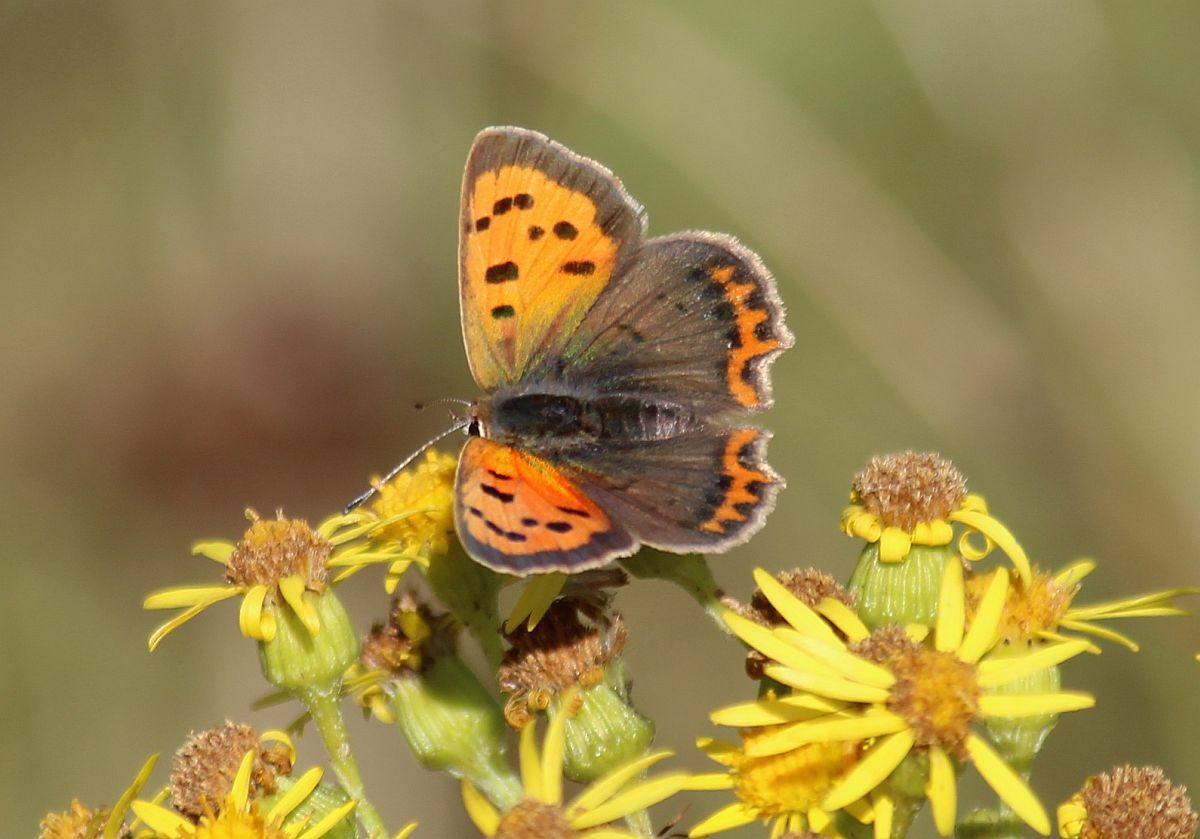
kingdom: Animalia
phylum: Arthropoda
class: Insecta
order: Lepidoptera
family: Lycaenidae
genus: Lycaena
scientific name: Lycaena phlaeas
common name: Small copper
